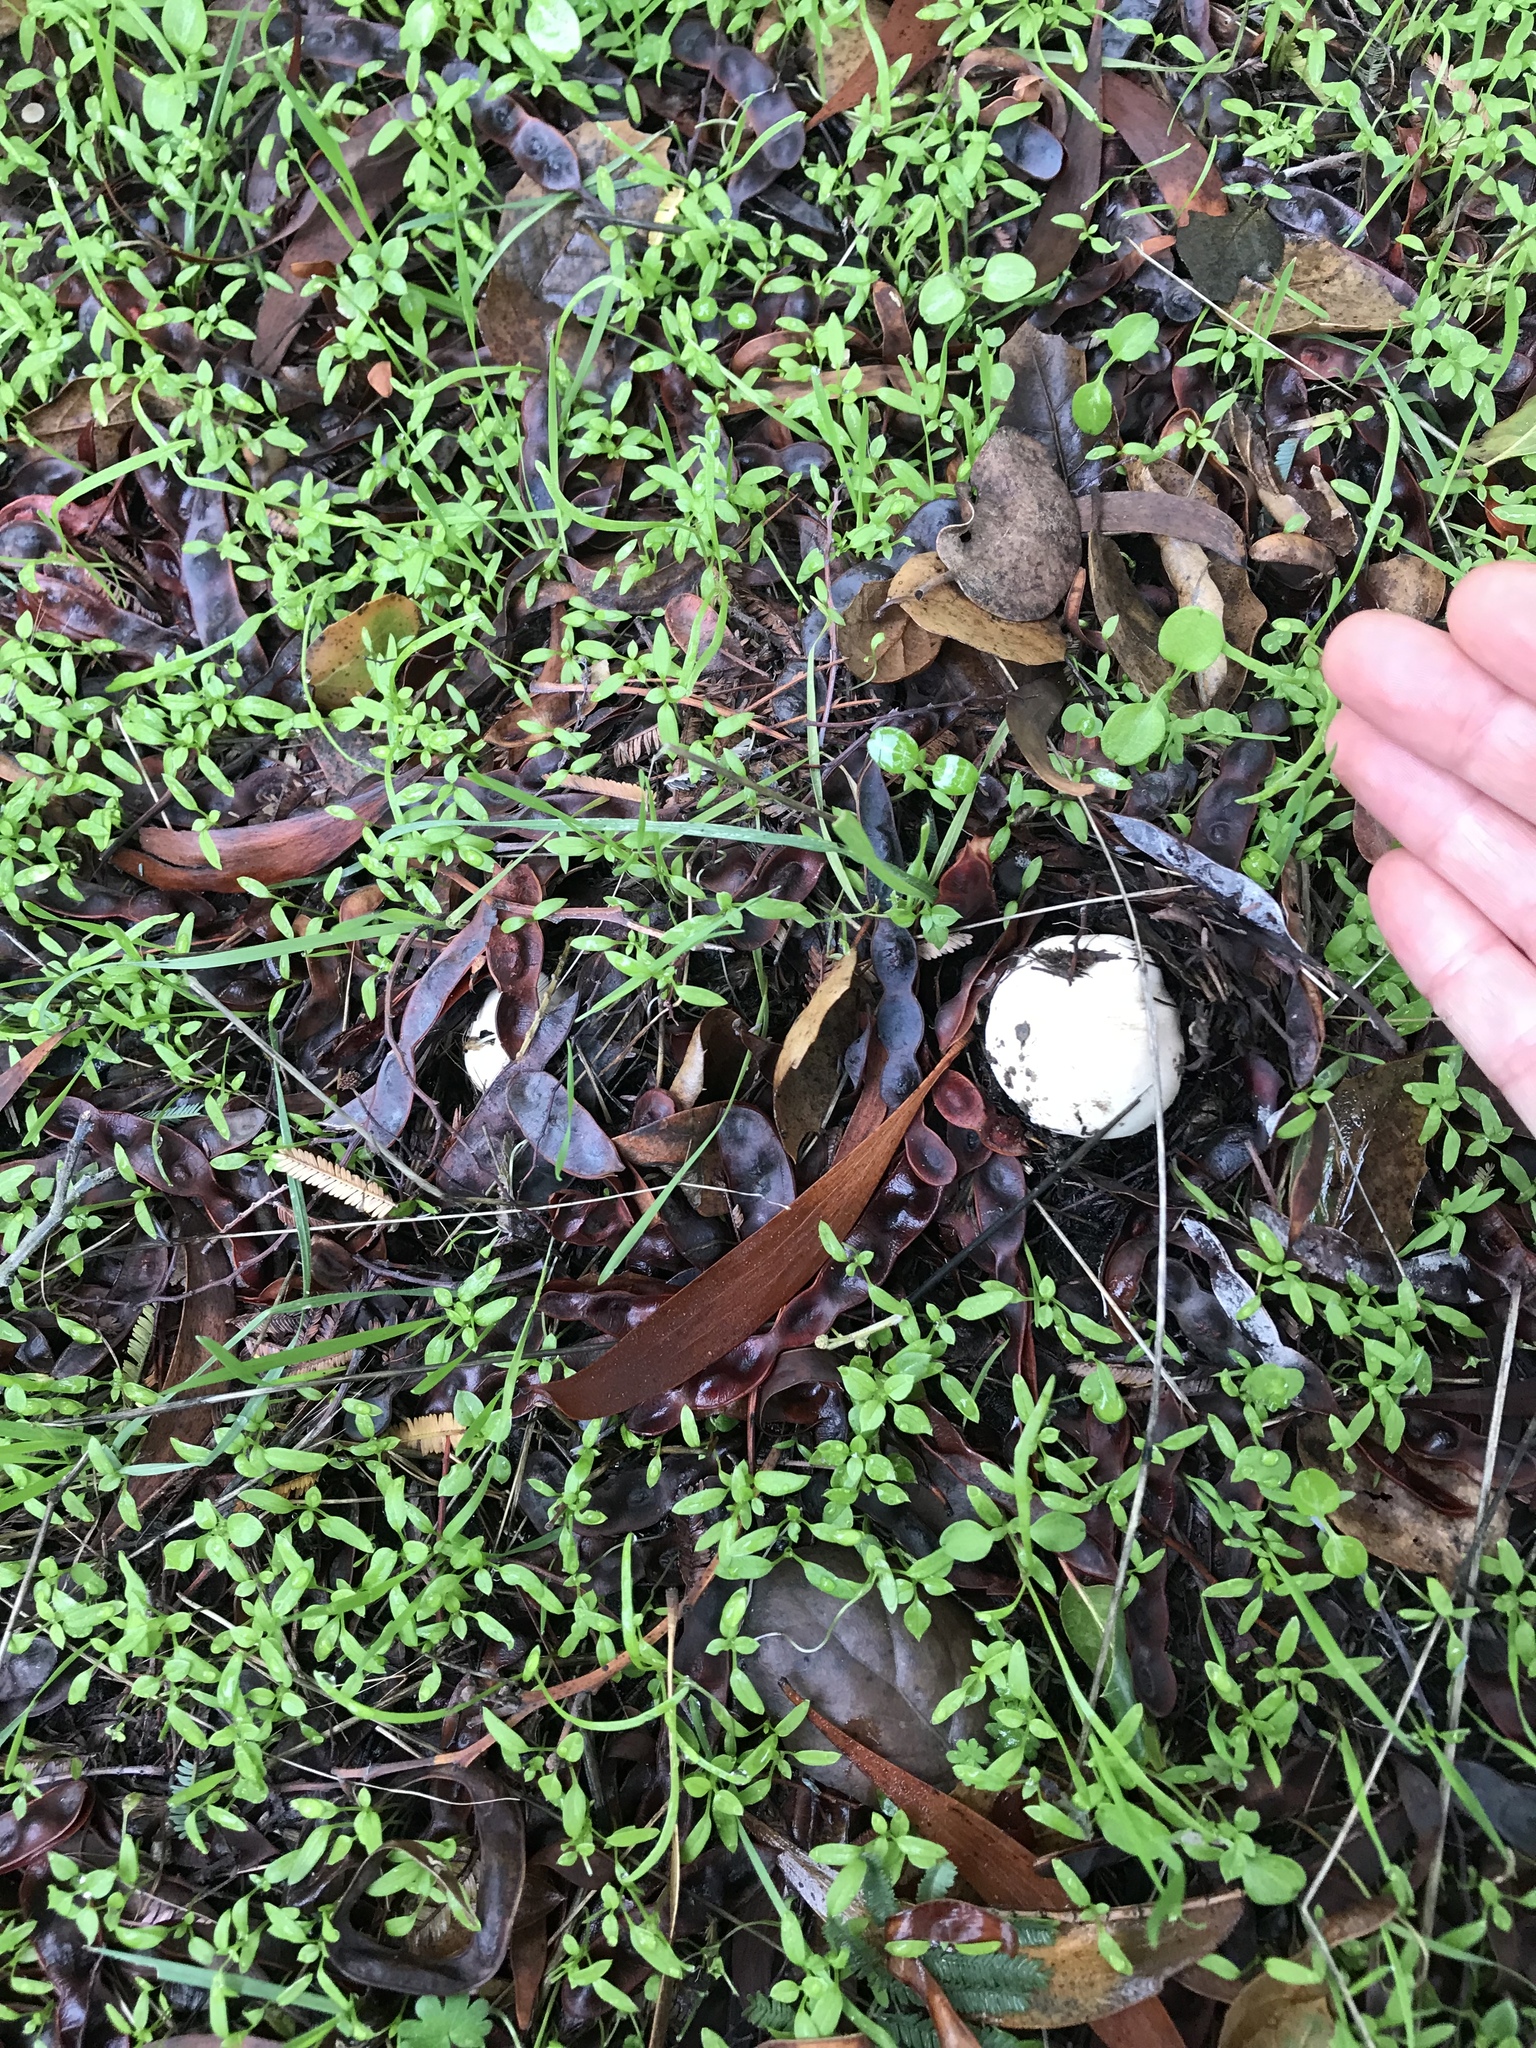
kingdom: Fungi
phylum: Basidiomycota
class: Agaricomycetes
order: Agaricales
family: Agaricaceae
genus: Agaricus
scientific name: Agaricus xanthodermus
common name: Yellow stainer
